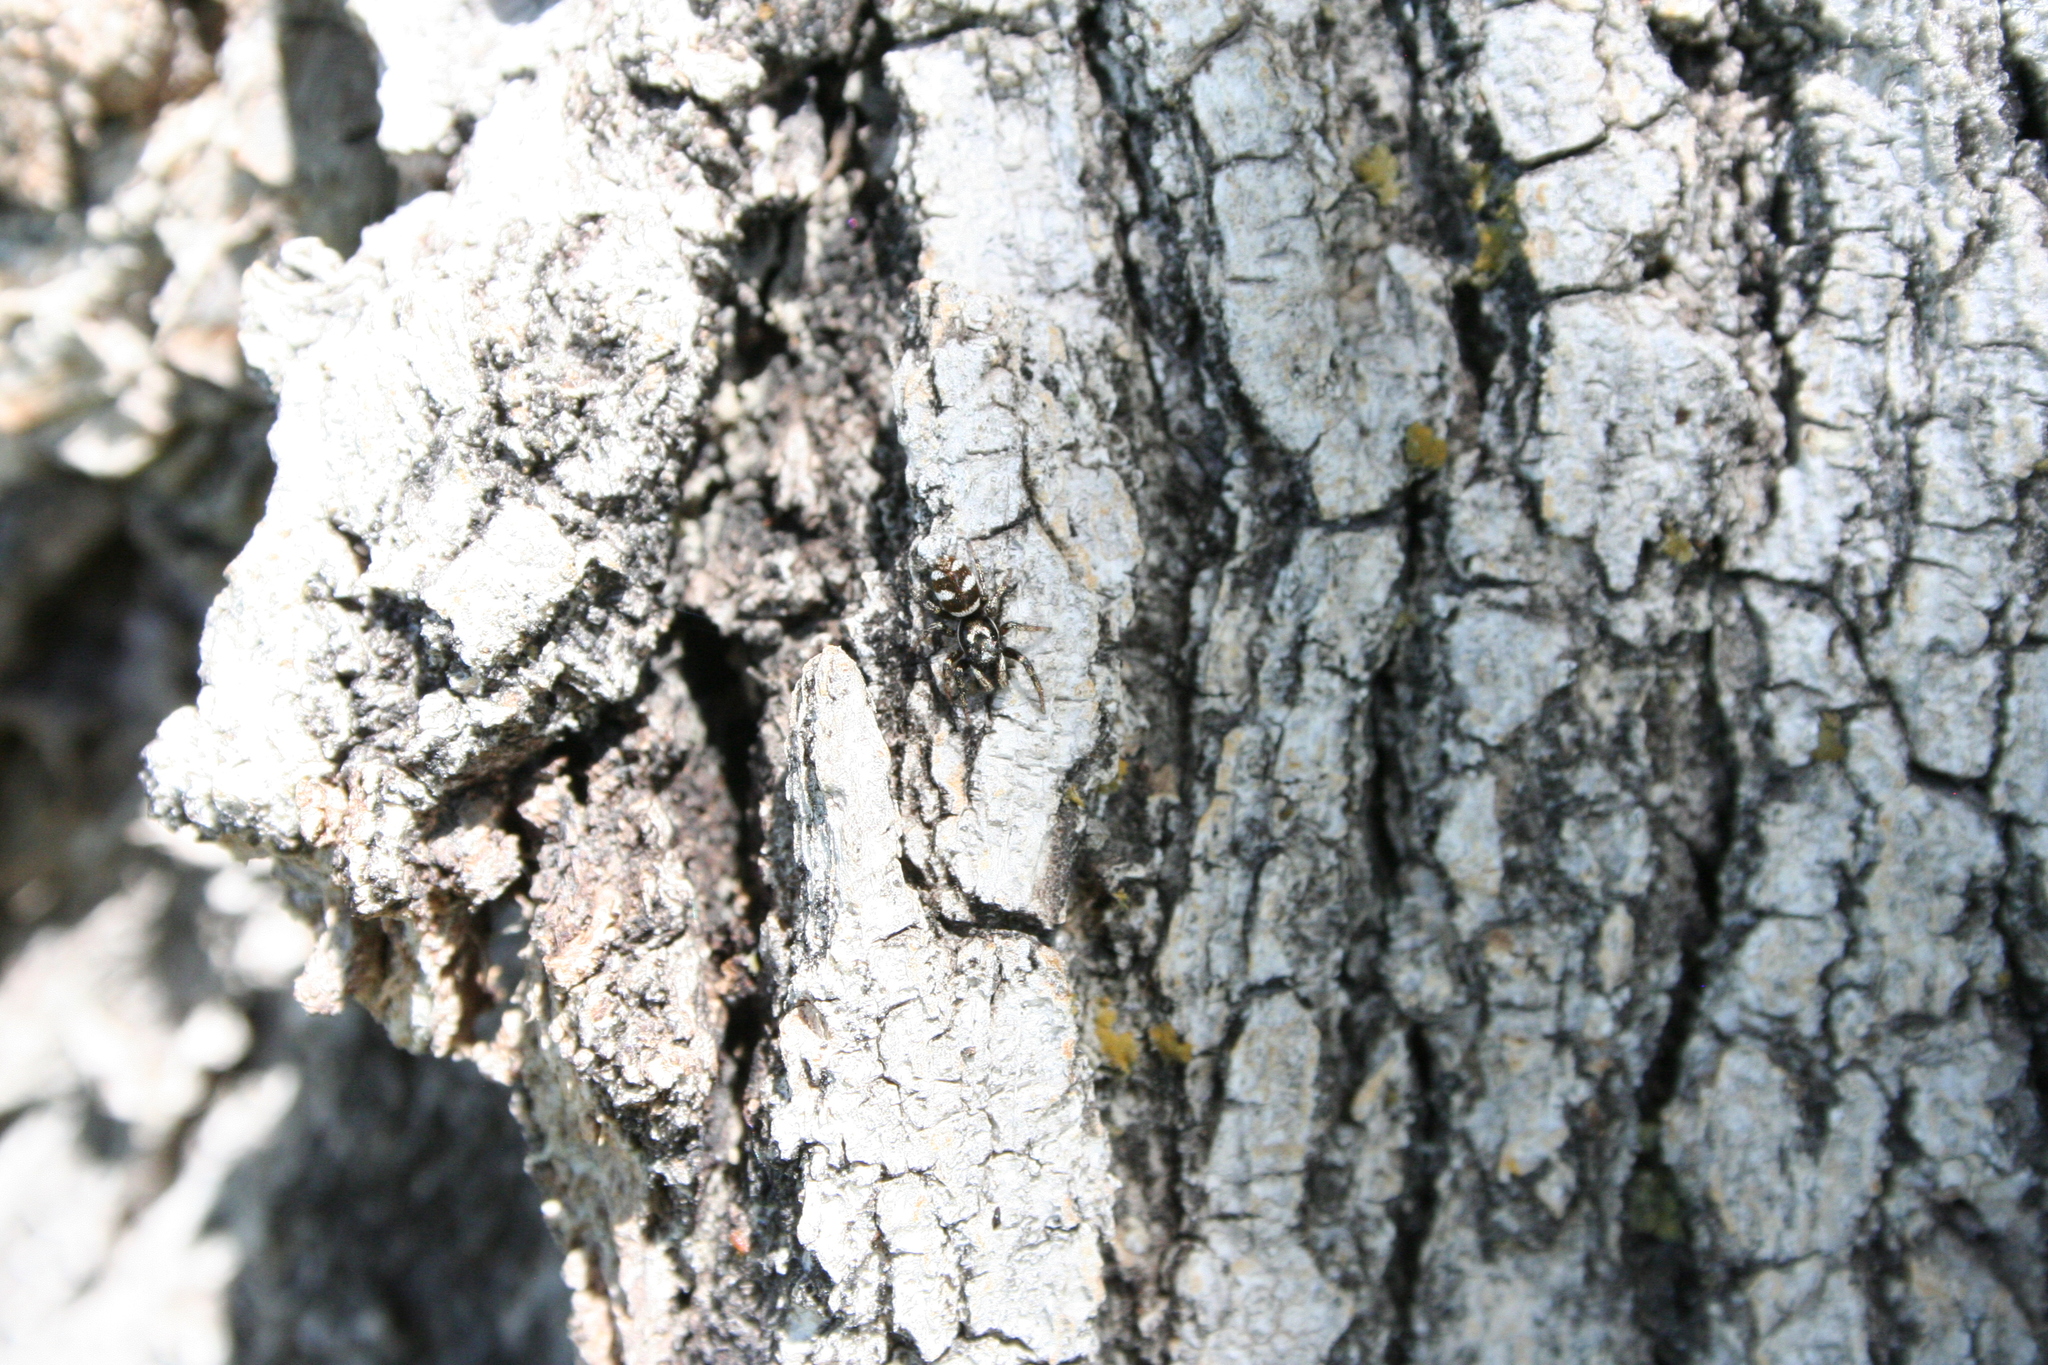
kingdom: Animalia
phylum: Arthropoda
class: Arachnida
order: Araneae
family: Salticidae
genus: Salticus
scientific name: Salticus scenicus
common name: Zebra jumper
